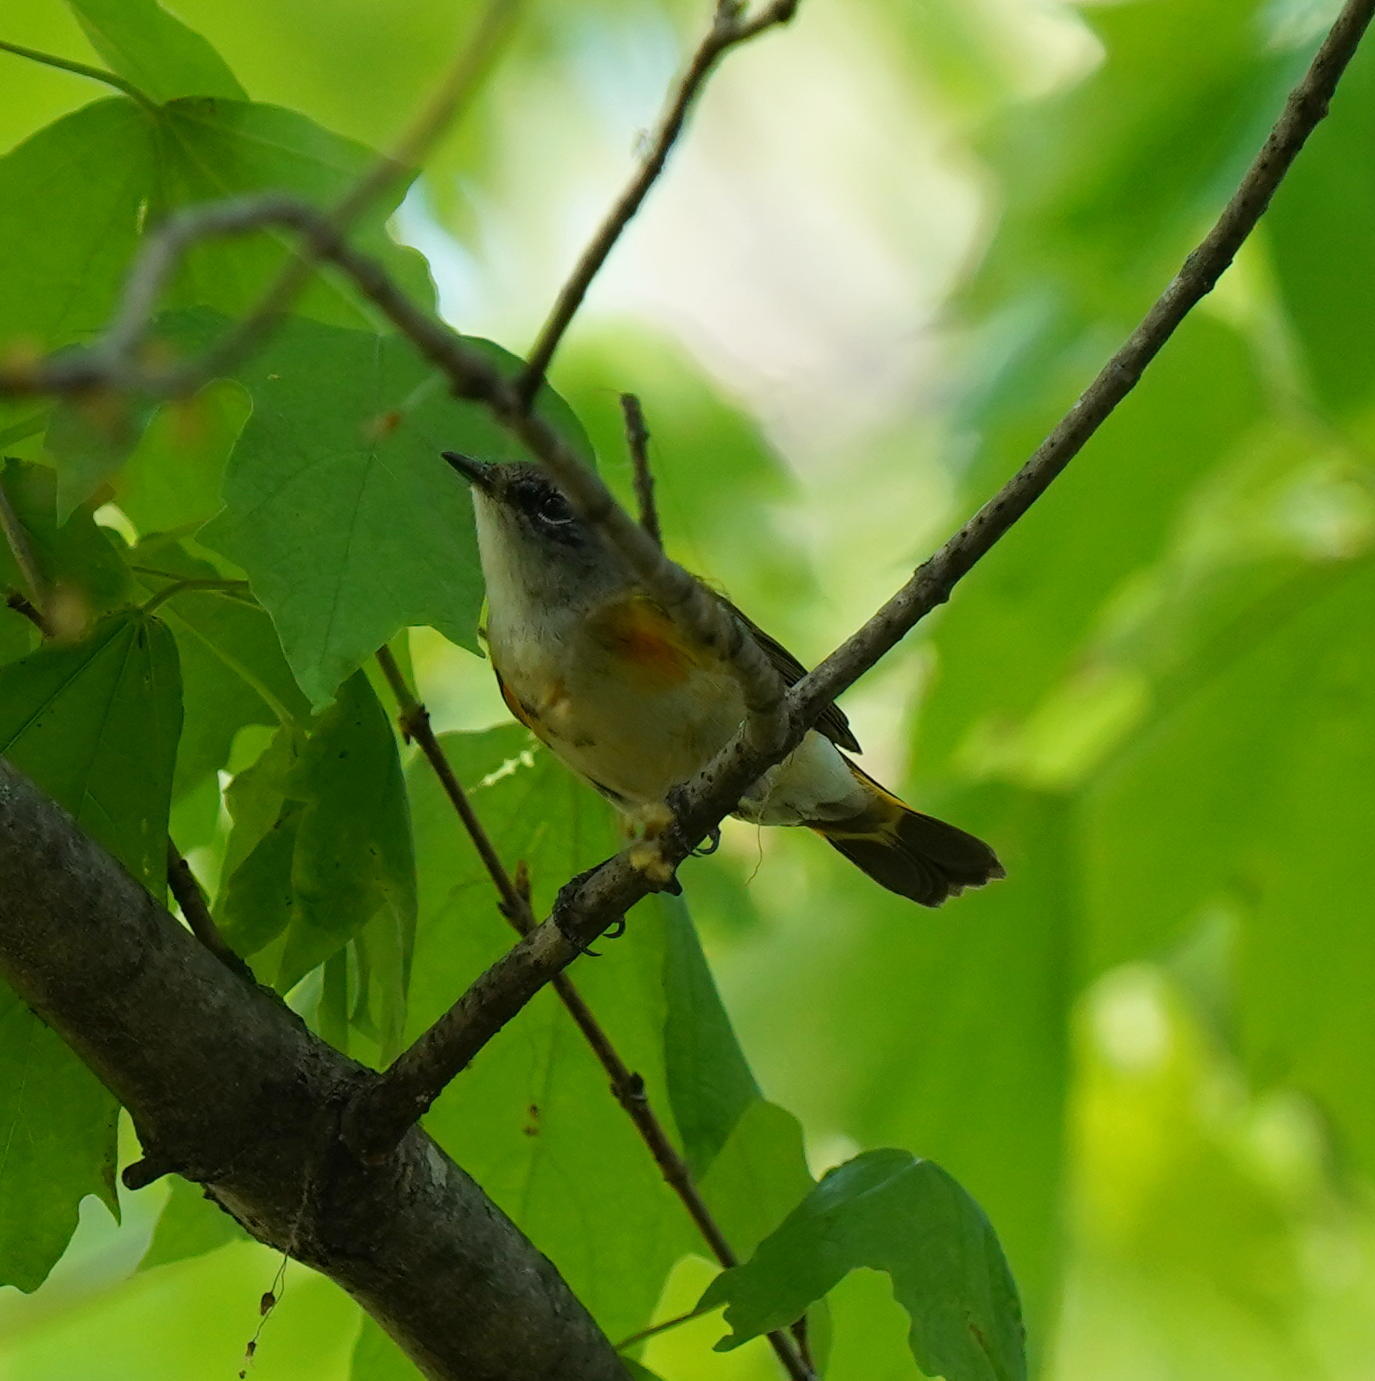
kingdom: Animalia
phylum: Chordata
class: Aves
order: Passeriformes
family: Parulidae
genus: Setophaga
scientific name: Setophaga ruticilla
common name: American redstart
